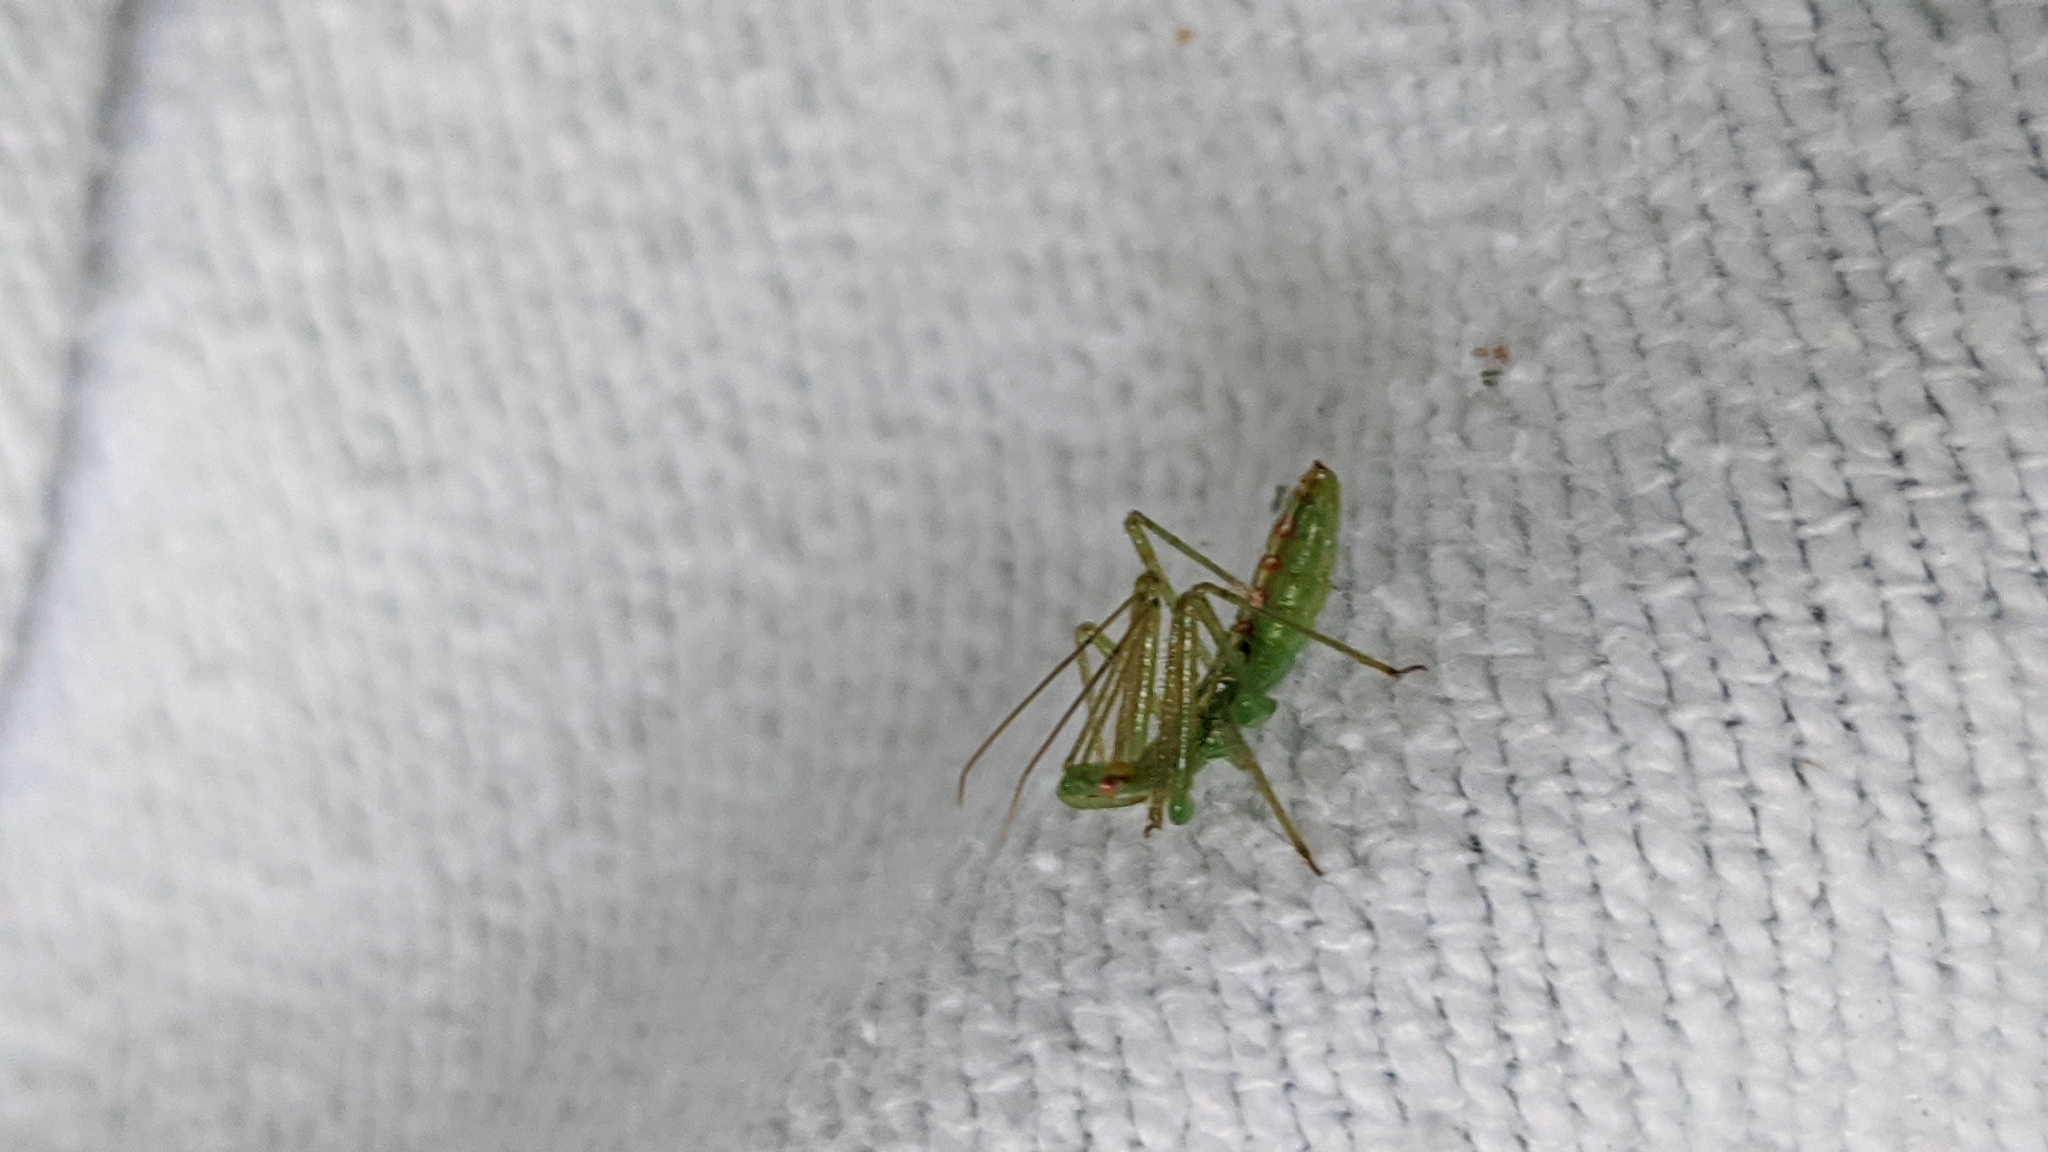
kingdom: Animalia
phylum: Arthropoda
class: Insecta
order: Hemiptera
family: Reduviidae
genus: Zelus
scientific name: Zelus luridus
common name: Pale green assassin bug
